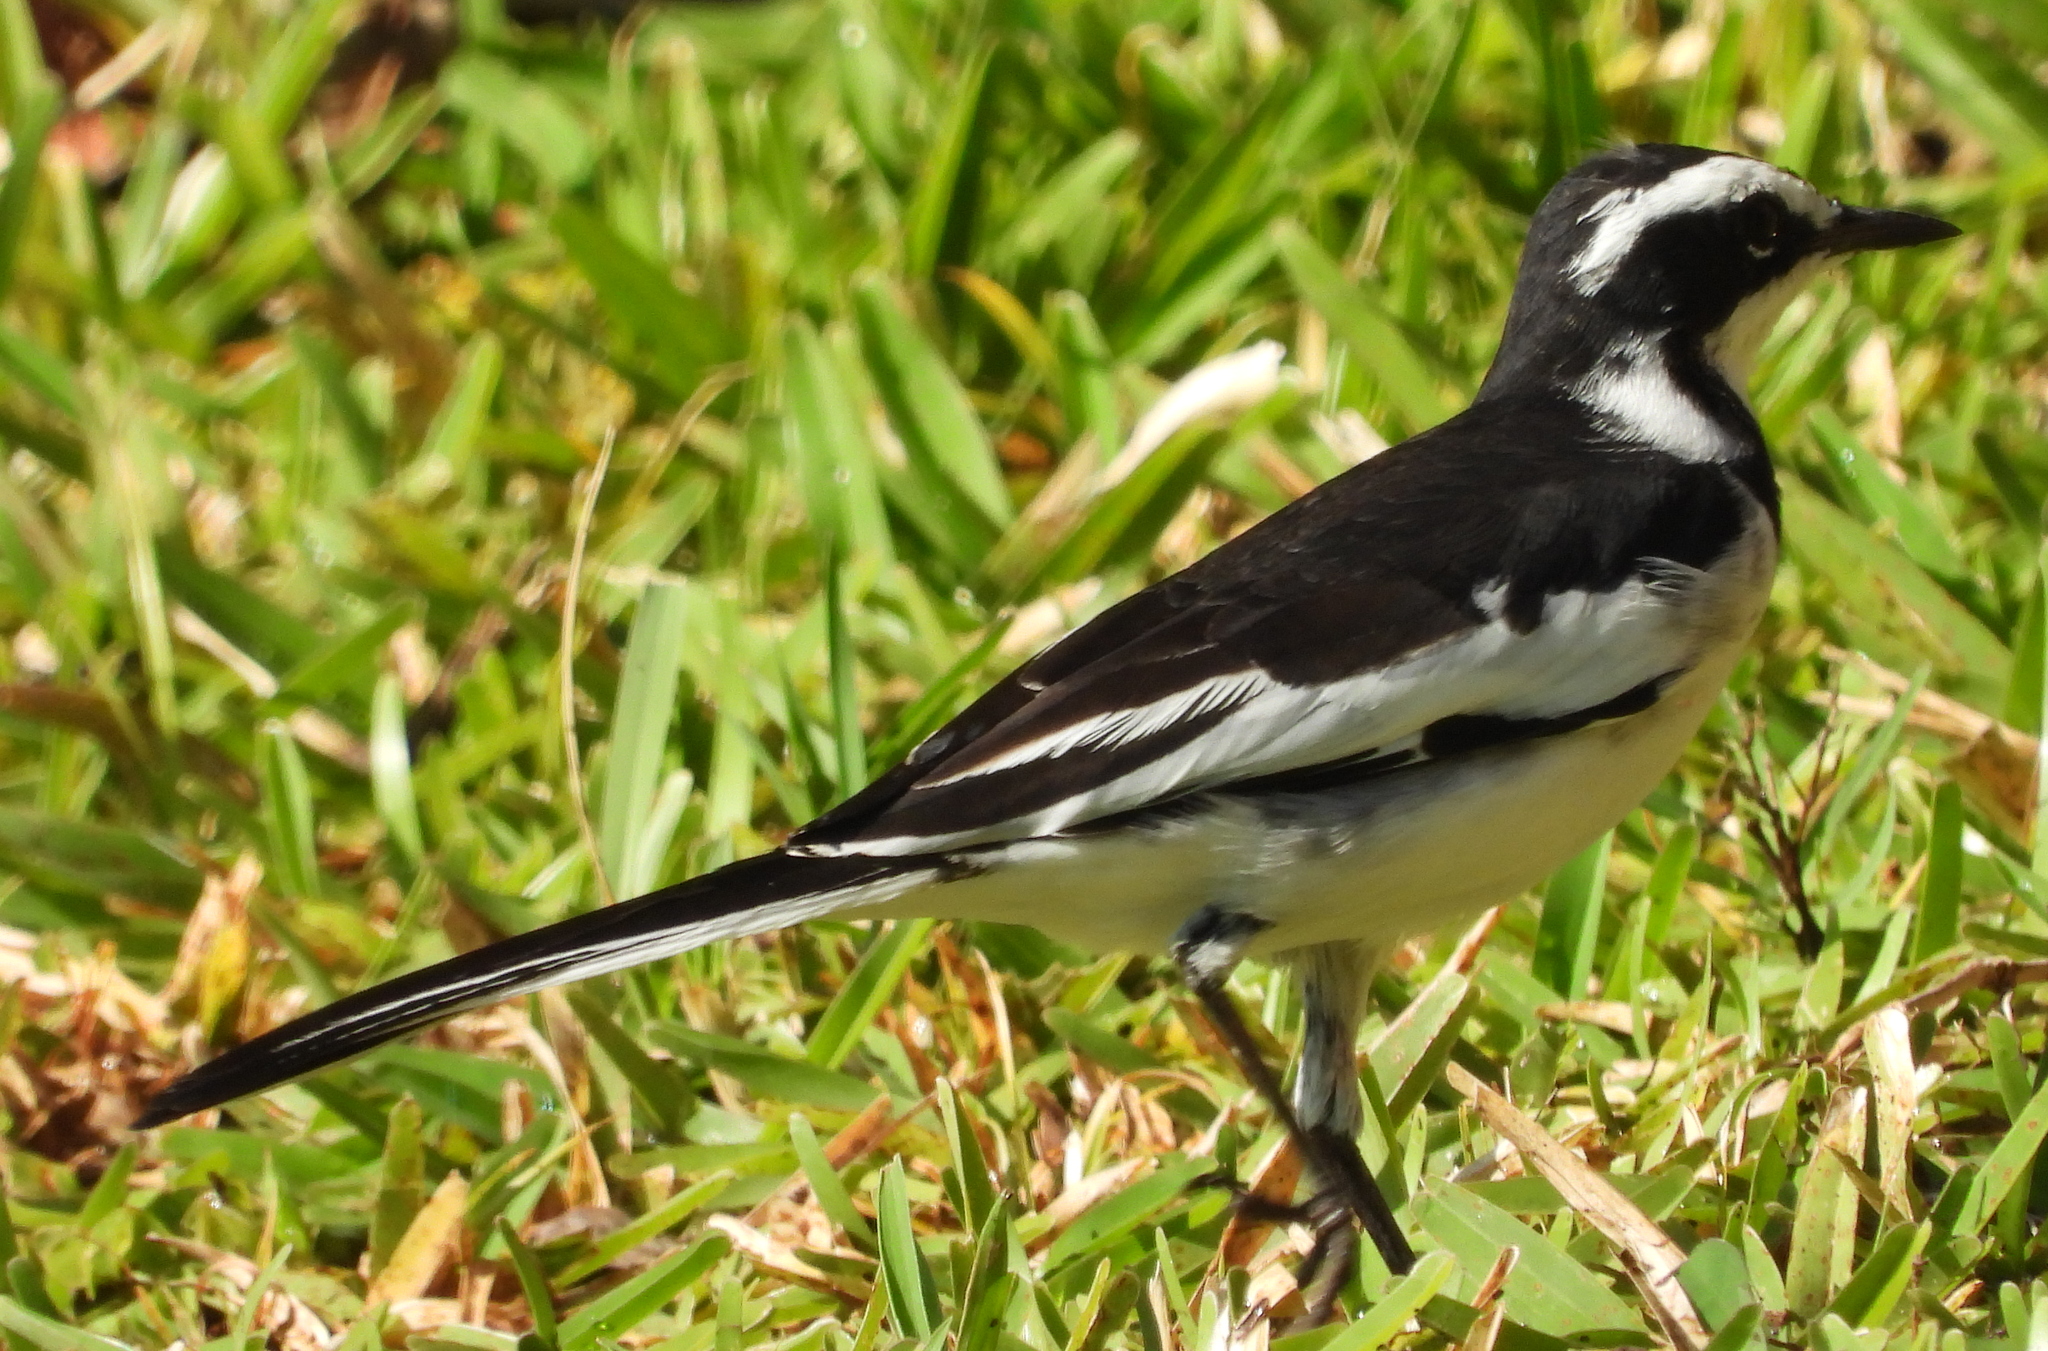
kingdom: Animalia
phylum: Chordata
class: Aves
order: Passeriformes
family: Motacillidae
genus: Motacilla
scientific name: Motacilla aguimp
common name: African pied wagtail
